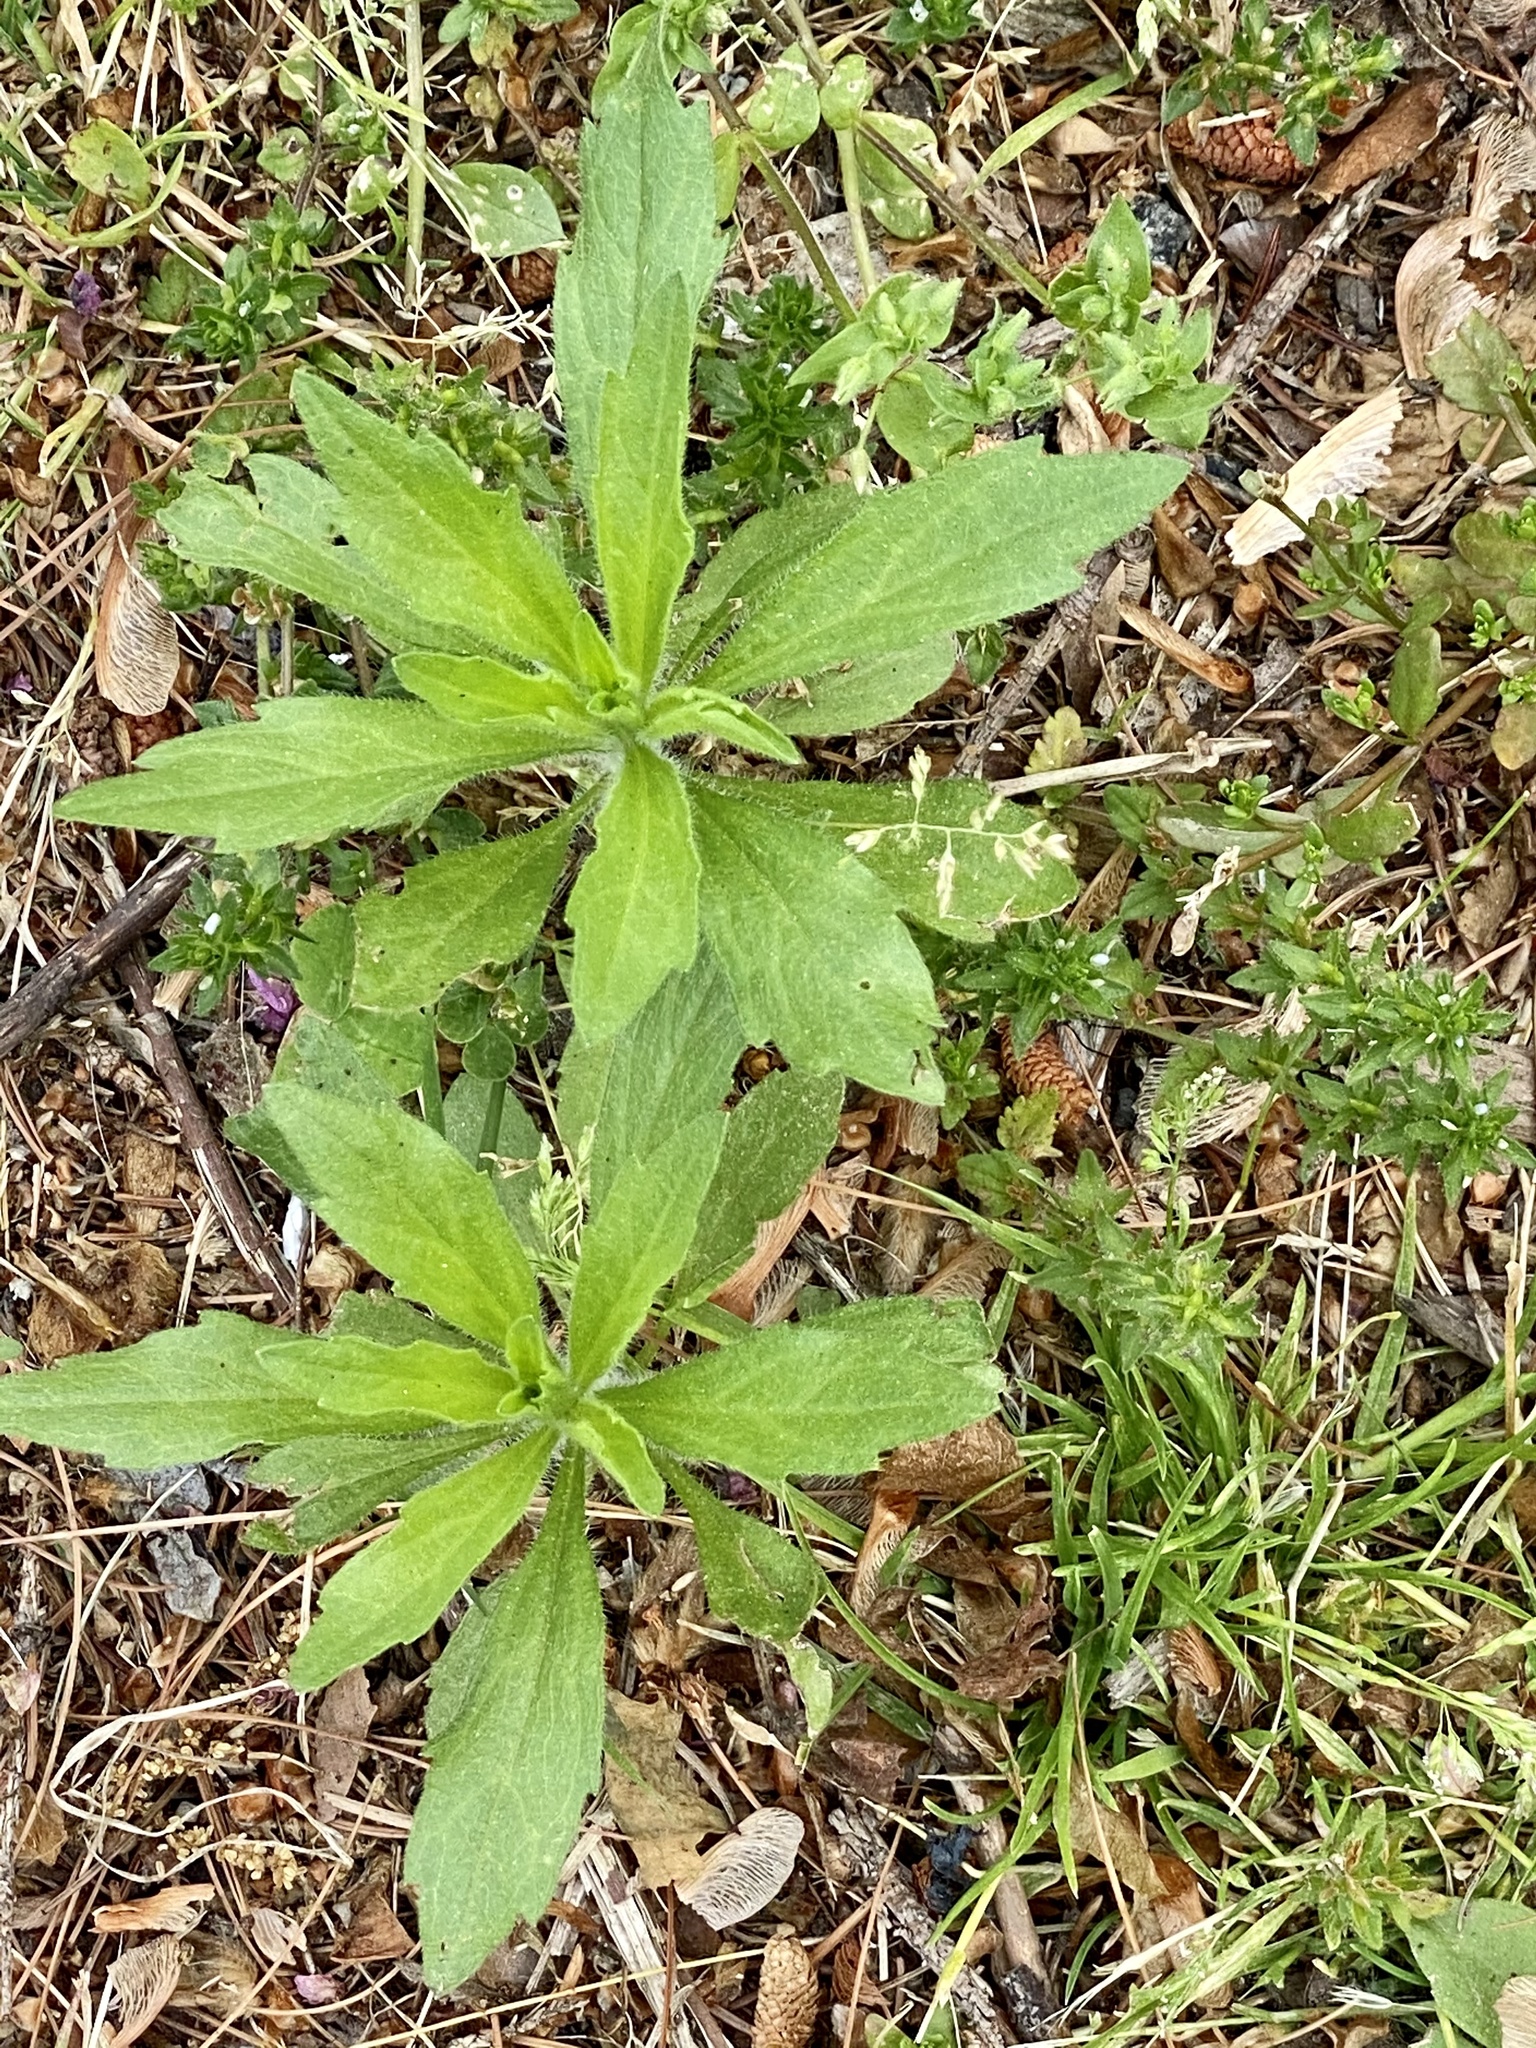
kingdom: Plantae
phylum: Tracheophyta
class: Magnoliopsida
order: Asterales
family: Asteraceae
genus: Erigeron
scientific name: Erigeron canadensis
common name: Canadian fleabane
